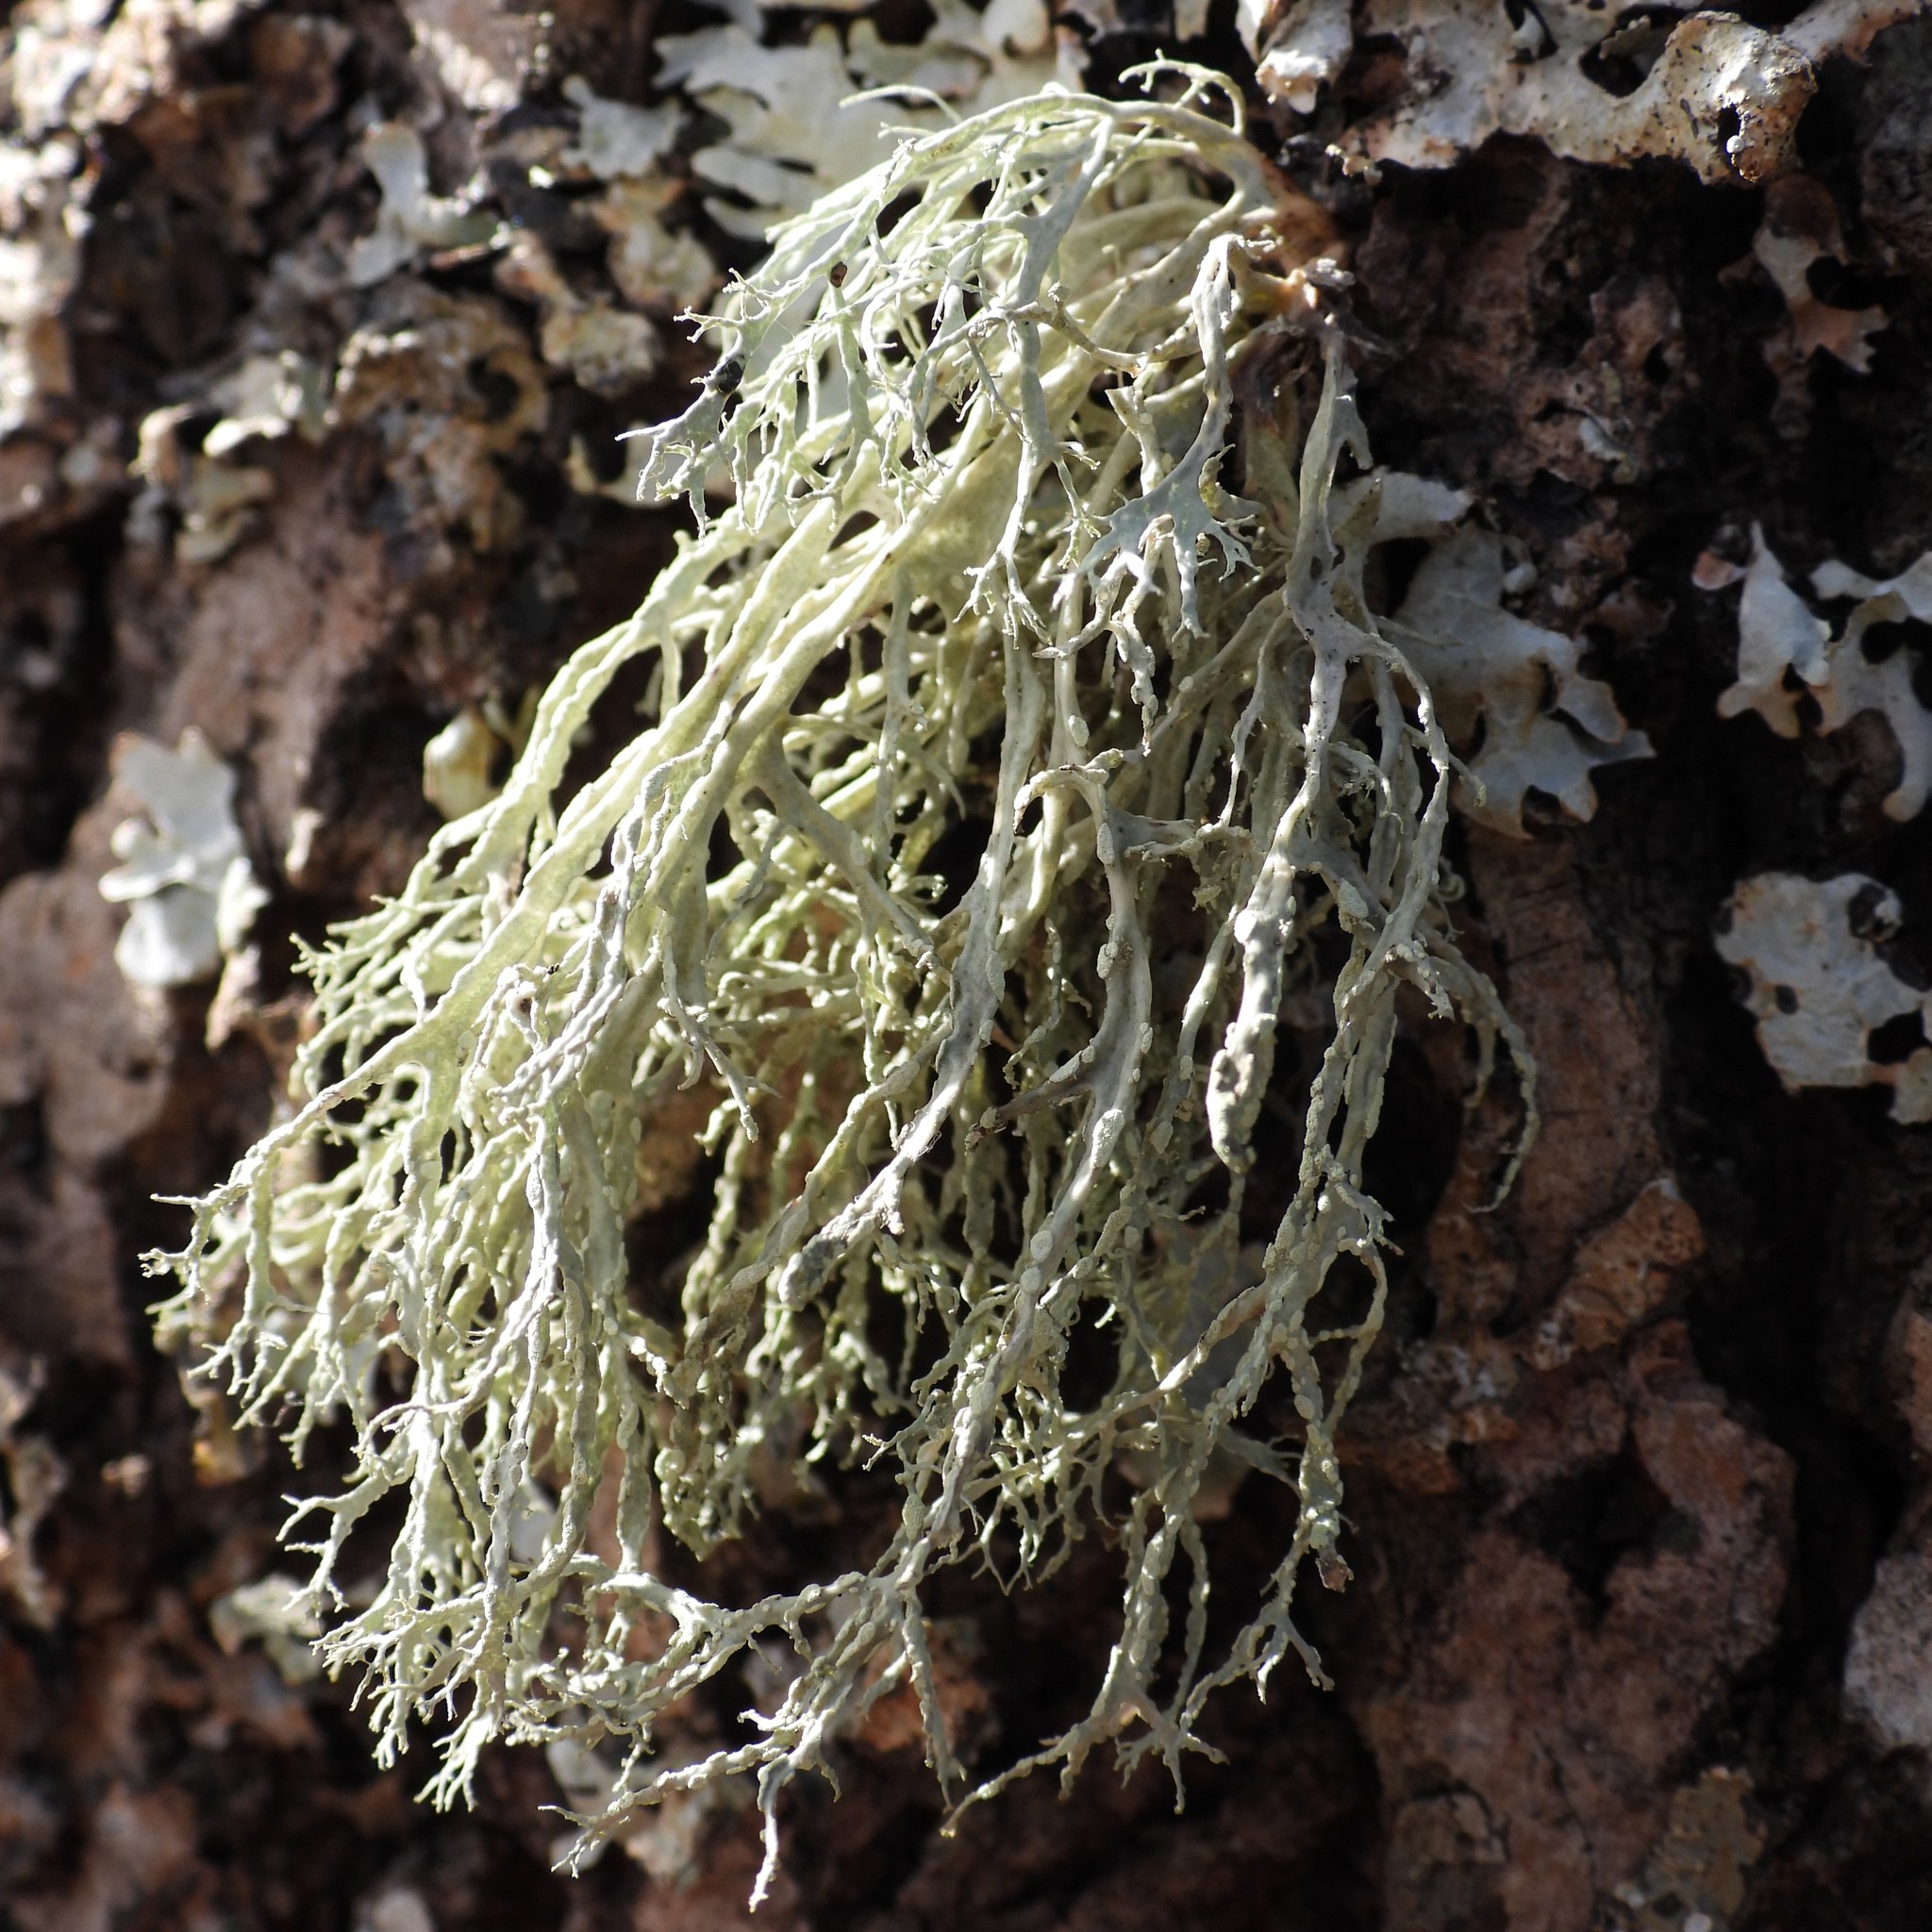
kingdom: Fungi
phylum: Ascomycota
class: Lecanoromycetes
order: Lecanorales
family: Ramalinaceae
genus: Ramalina
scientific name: Ramalina farinacea
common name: Farinose cartilage lichen
